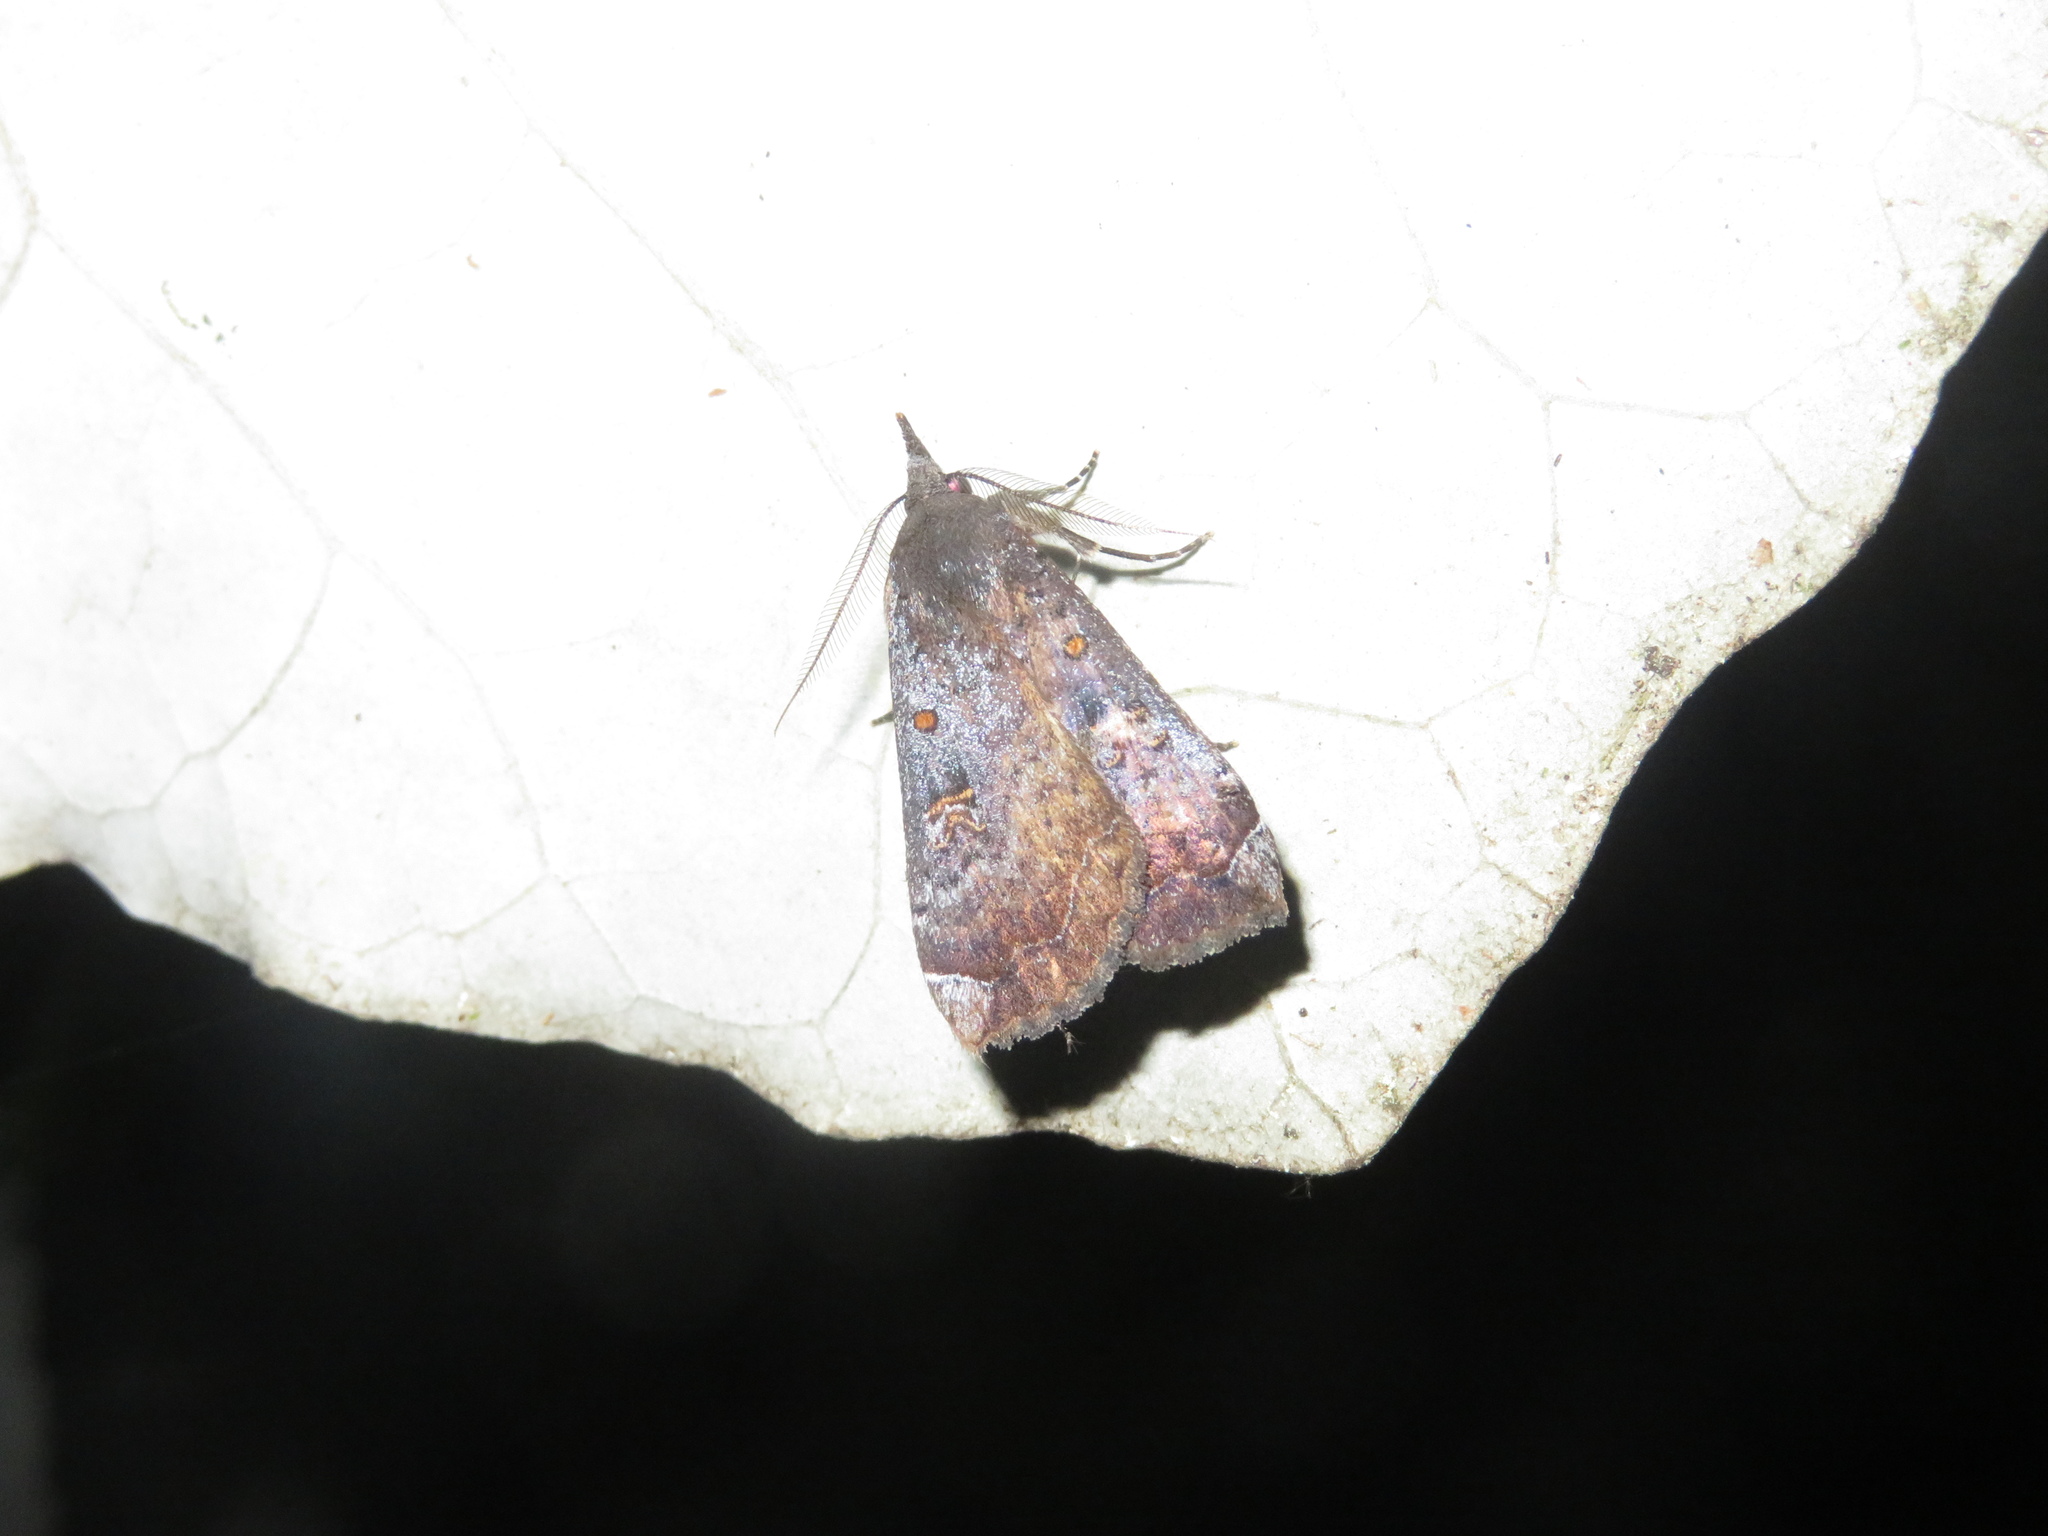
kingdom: Animalia
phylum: Arthropoda
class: Insecta
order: Lepidoptera
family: Erebidae
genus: Rhapsa
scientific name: Rhapsa scotosialis
